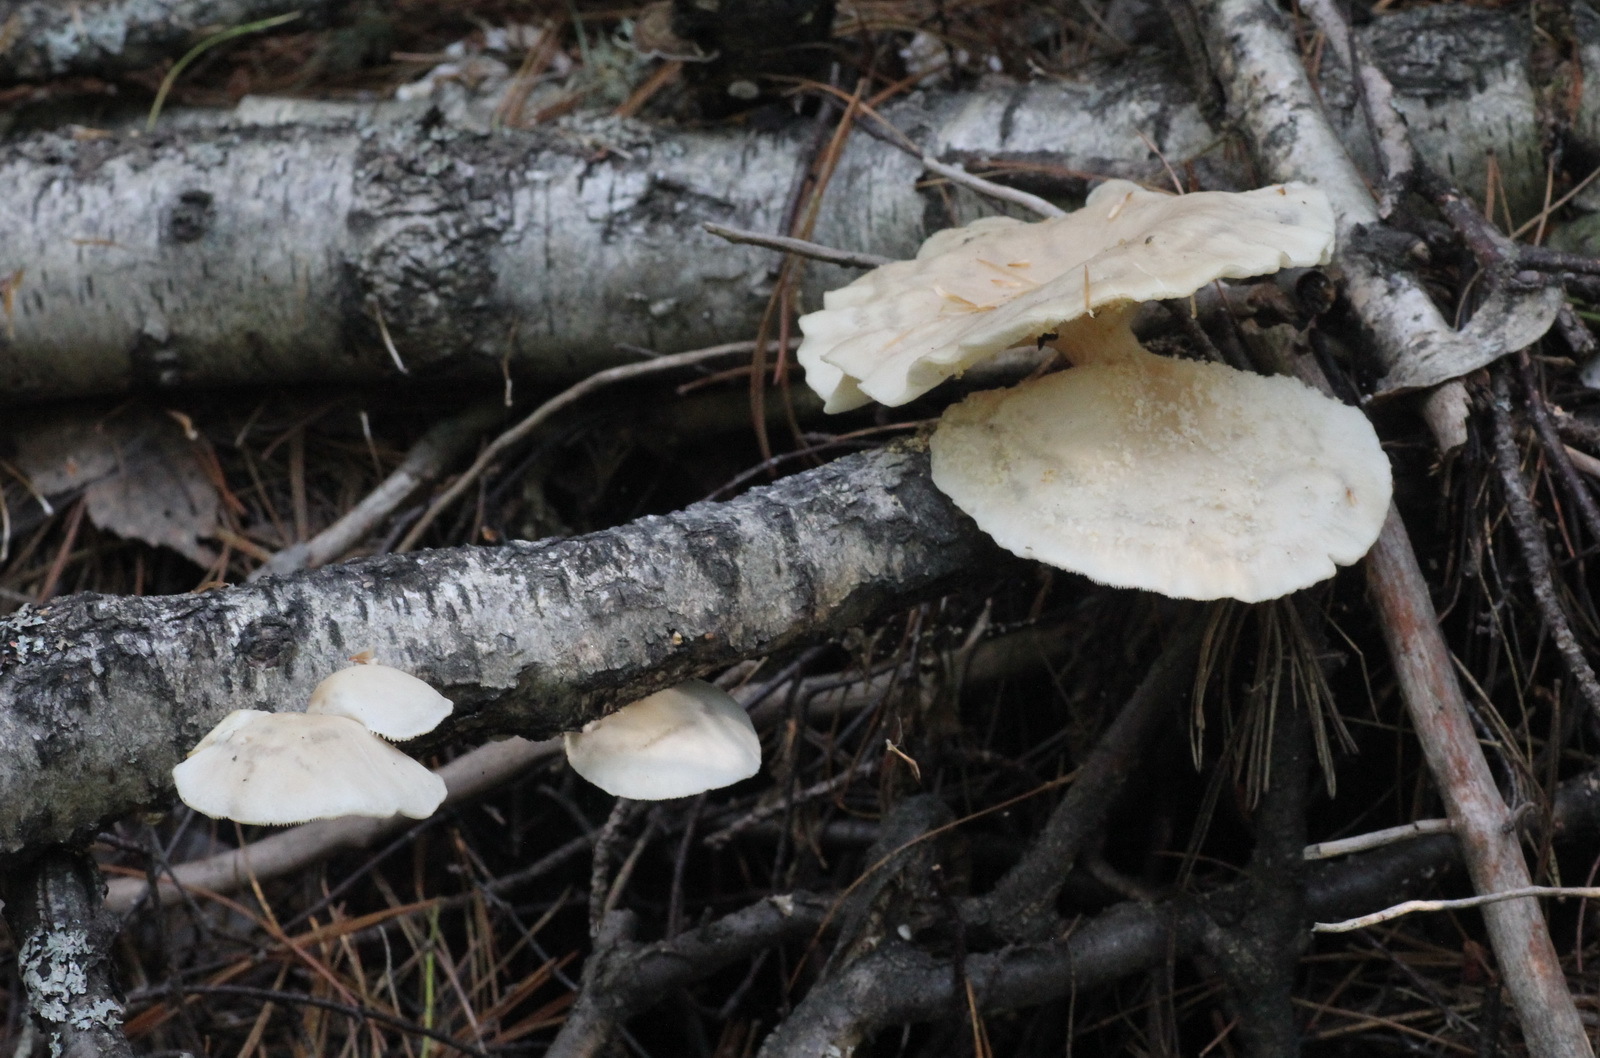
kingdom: Fungi
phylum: Basidiomycota
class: Agaricomycetes
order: Agaricales
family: Pleurotaceae
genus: Pleurotus
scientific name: Pleurotus pulmonarius
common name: Pale oyster
